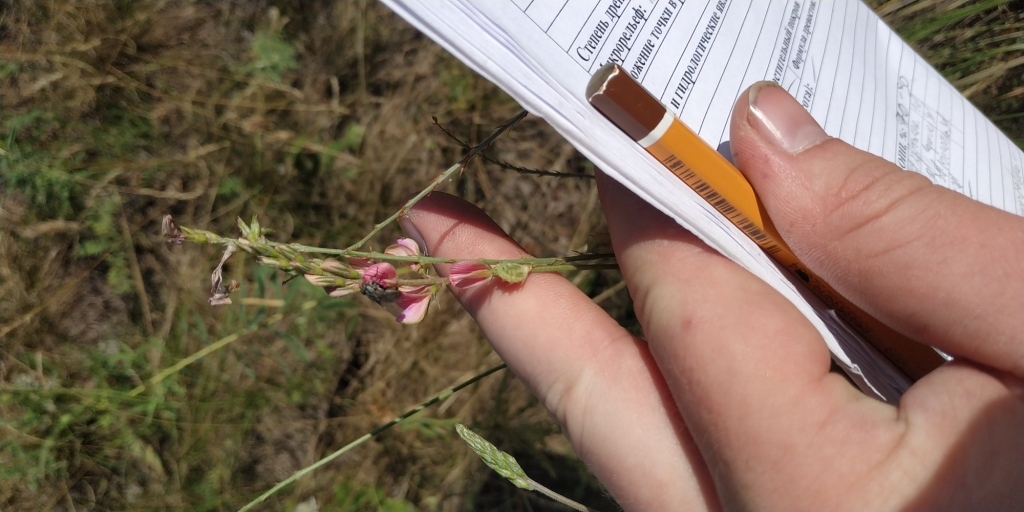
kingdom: Plantae
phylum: Tracheophyta
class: Magnoliopsida
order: Fabales
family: Fabaceae
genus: Onobrychis
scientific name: Onobrychis viciifolia
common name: Sainfoin
